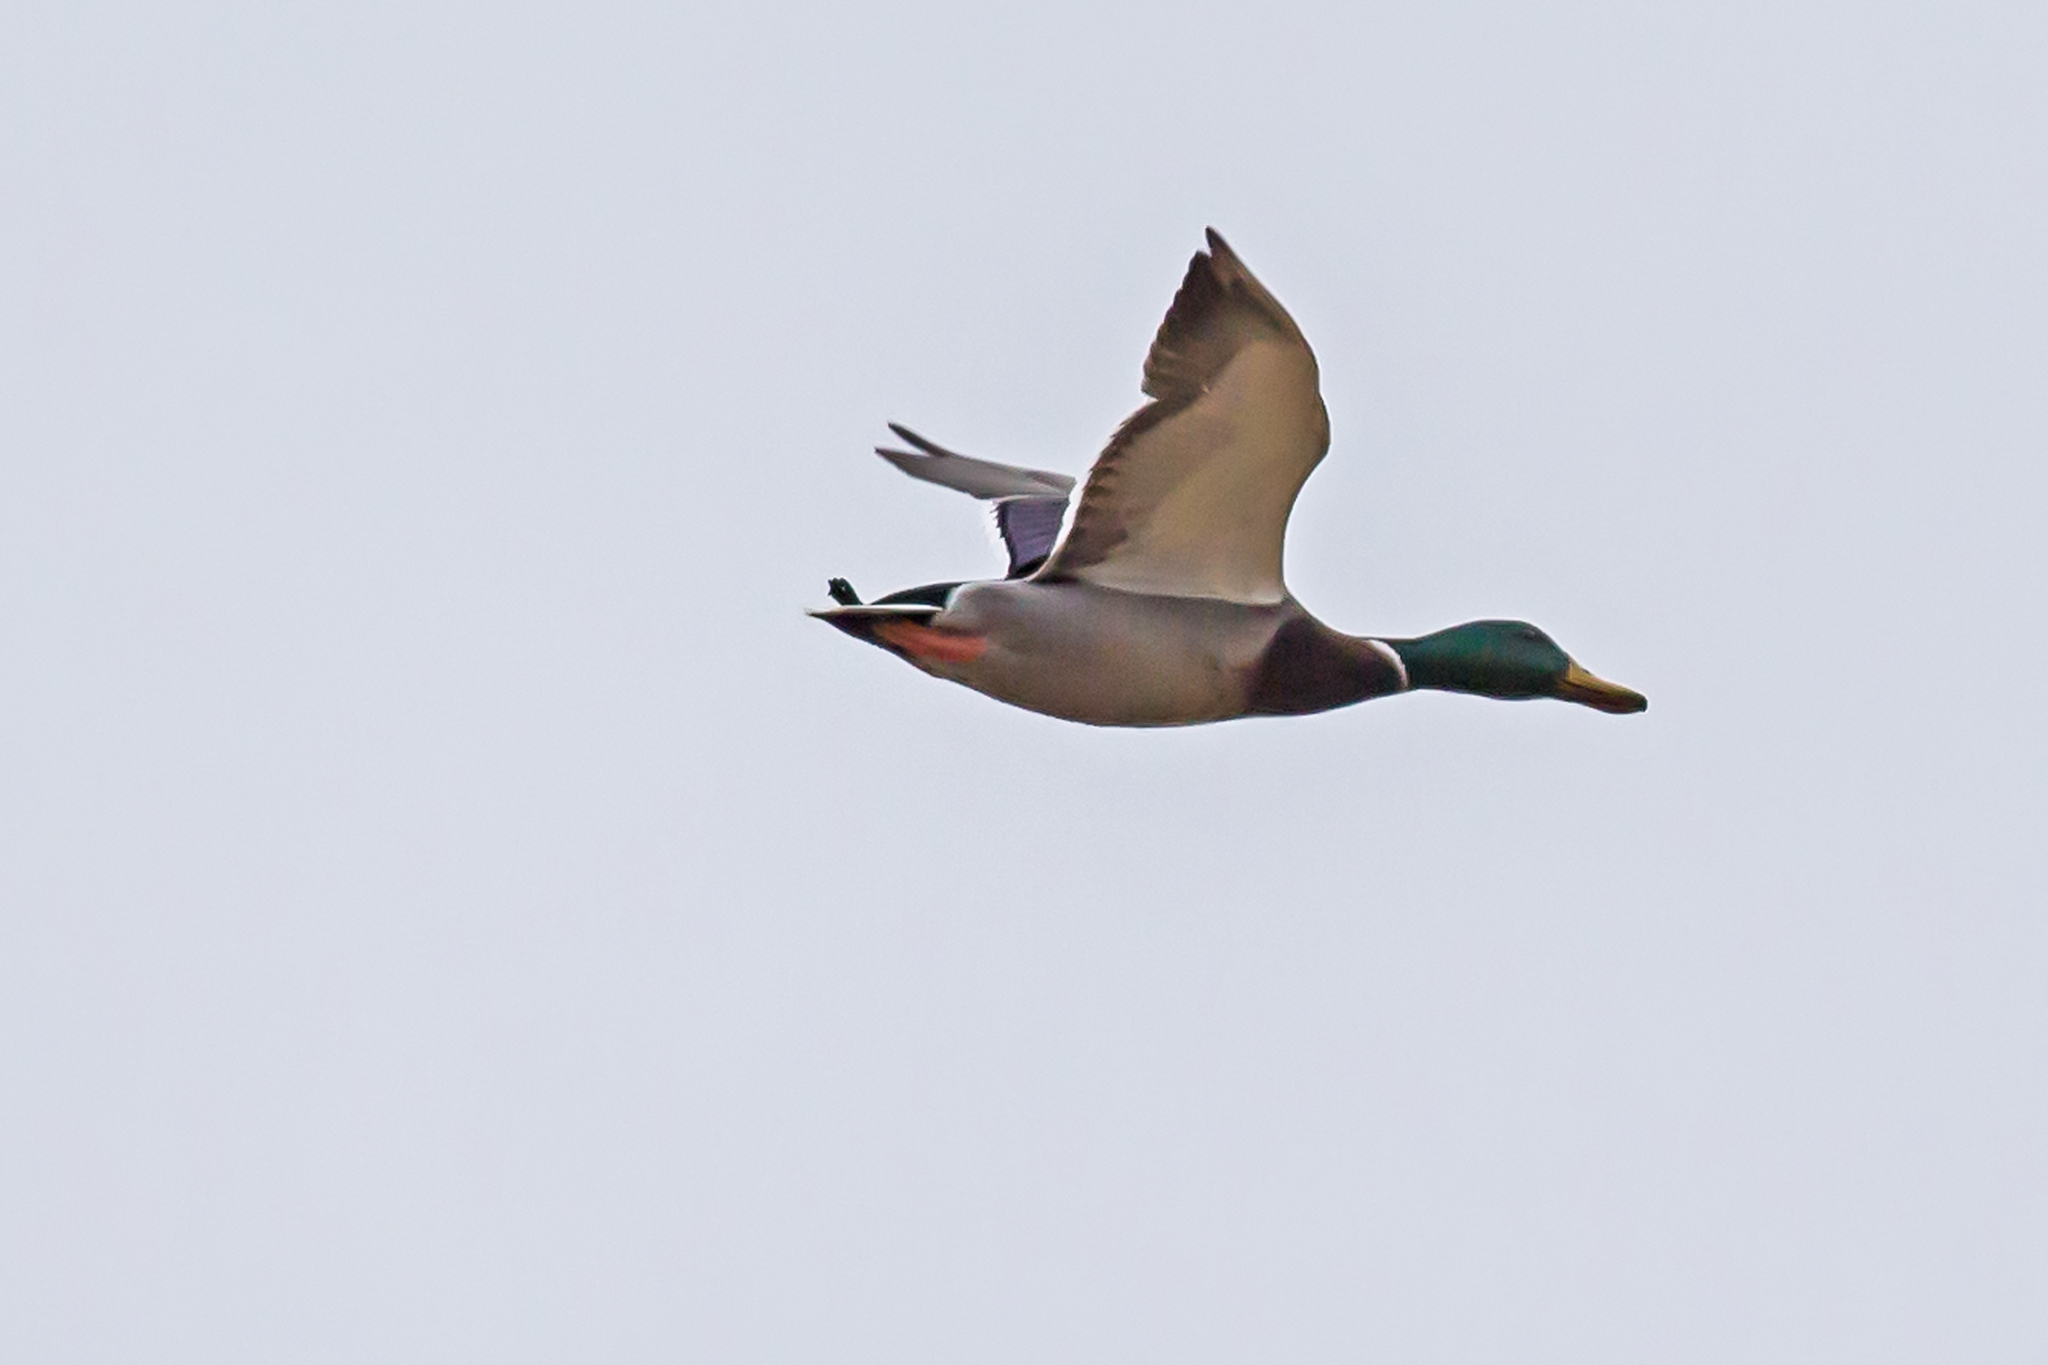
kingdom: Animalia
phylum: Chordata
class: Aves
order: Anseriformes
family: Anatidae
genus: Anas
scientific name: Anas platyrhynchos
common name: Mallard
